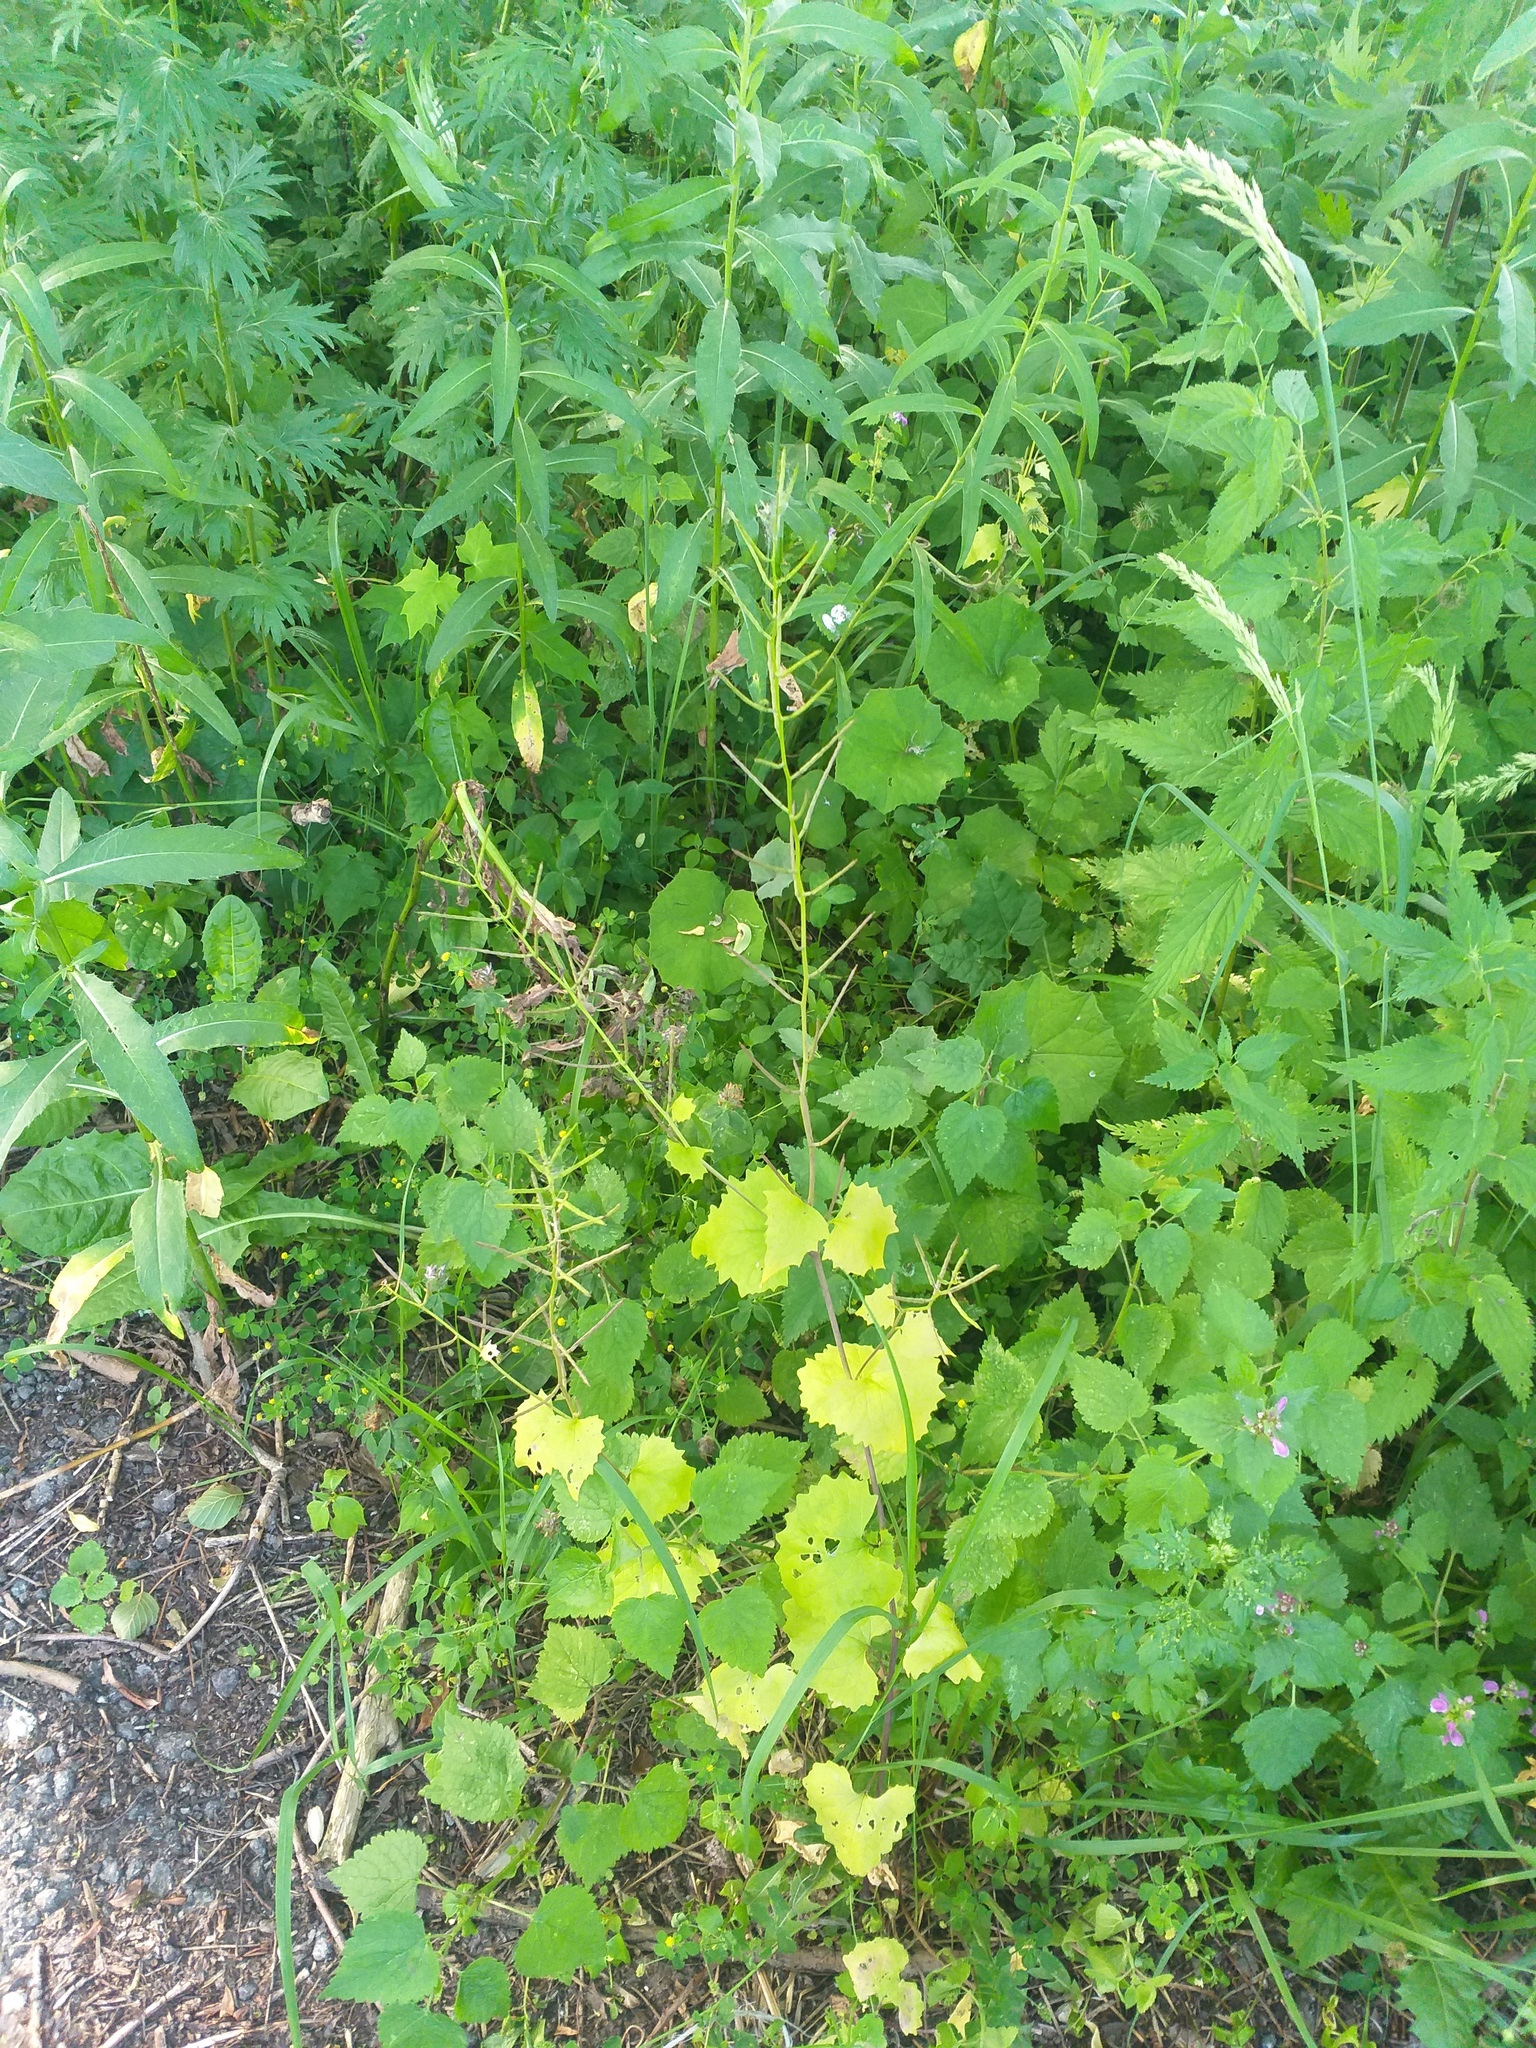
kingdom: Plantae
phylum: Tracheophyta
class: Magnoliopsida
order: Brassicales
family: Brassicaceae
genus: Alliaria
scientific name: Alliaria petiolata
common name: Garlic mustard
